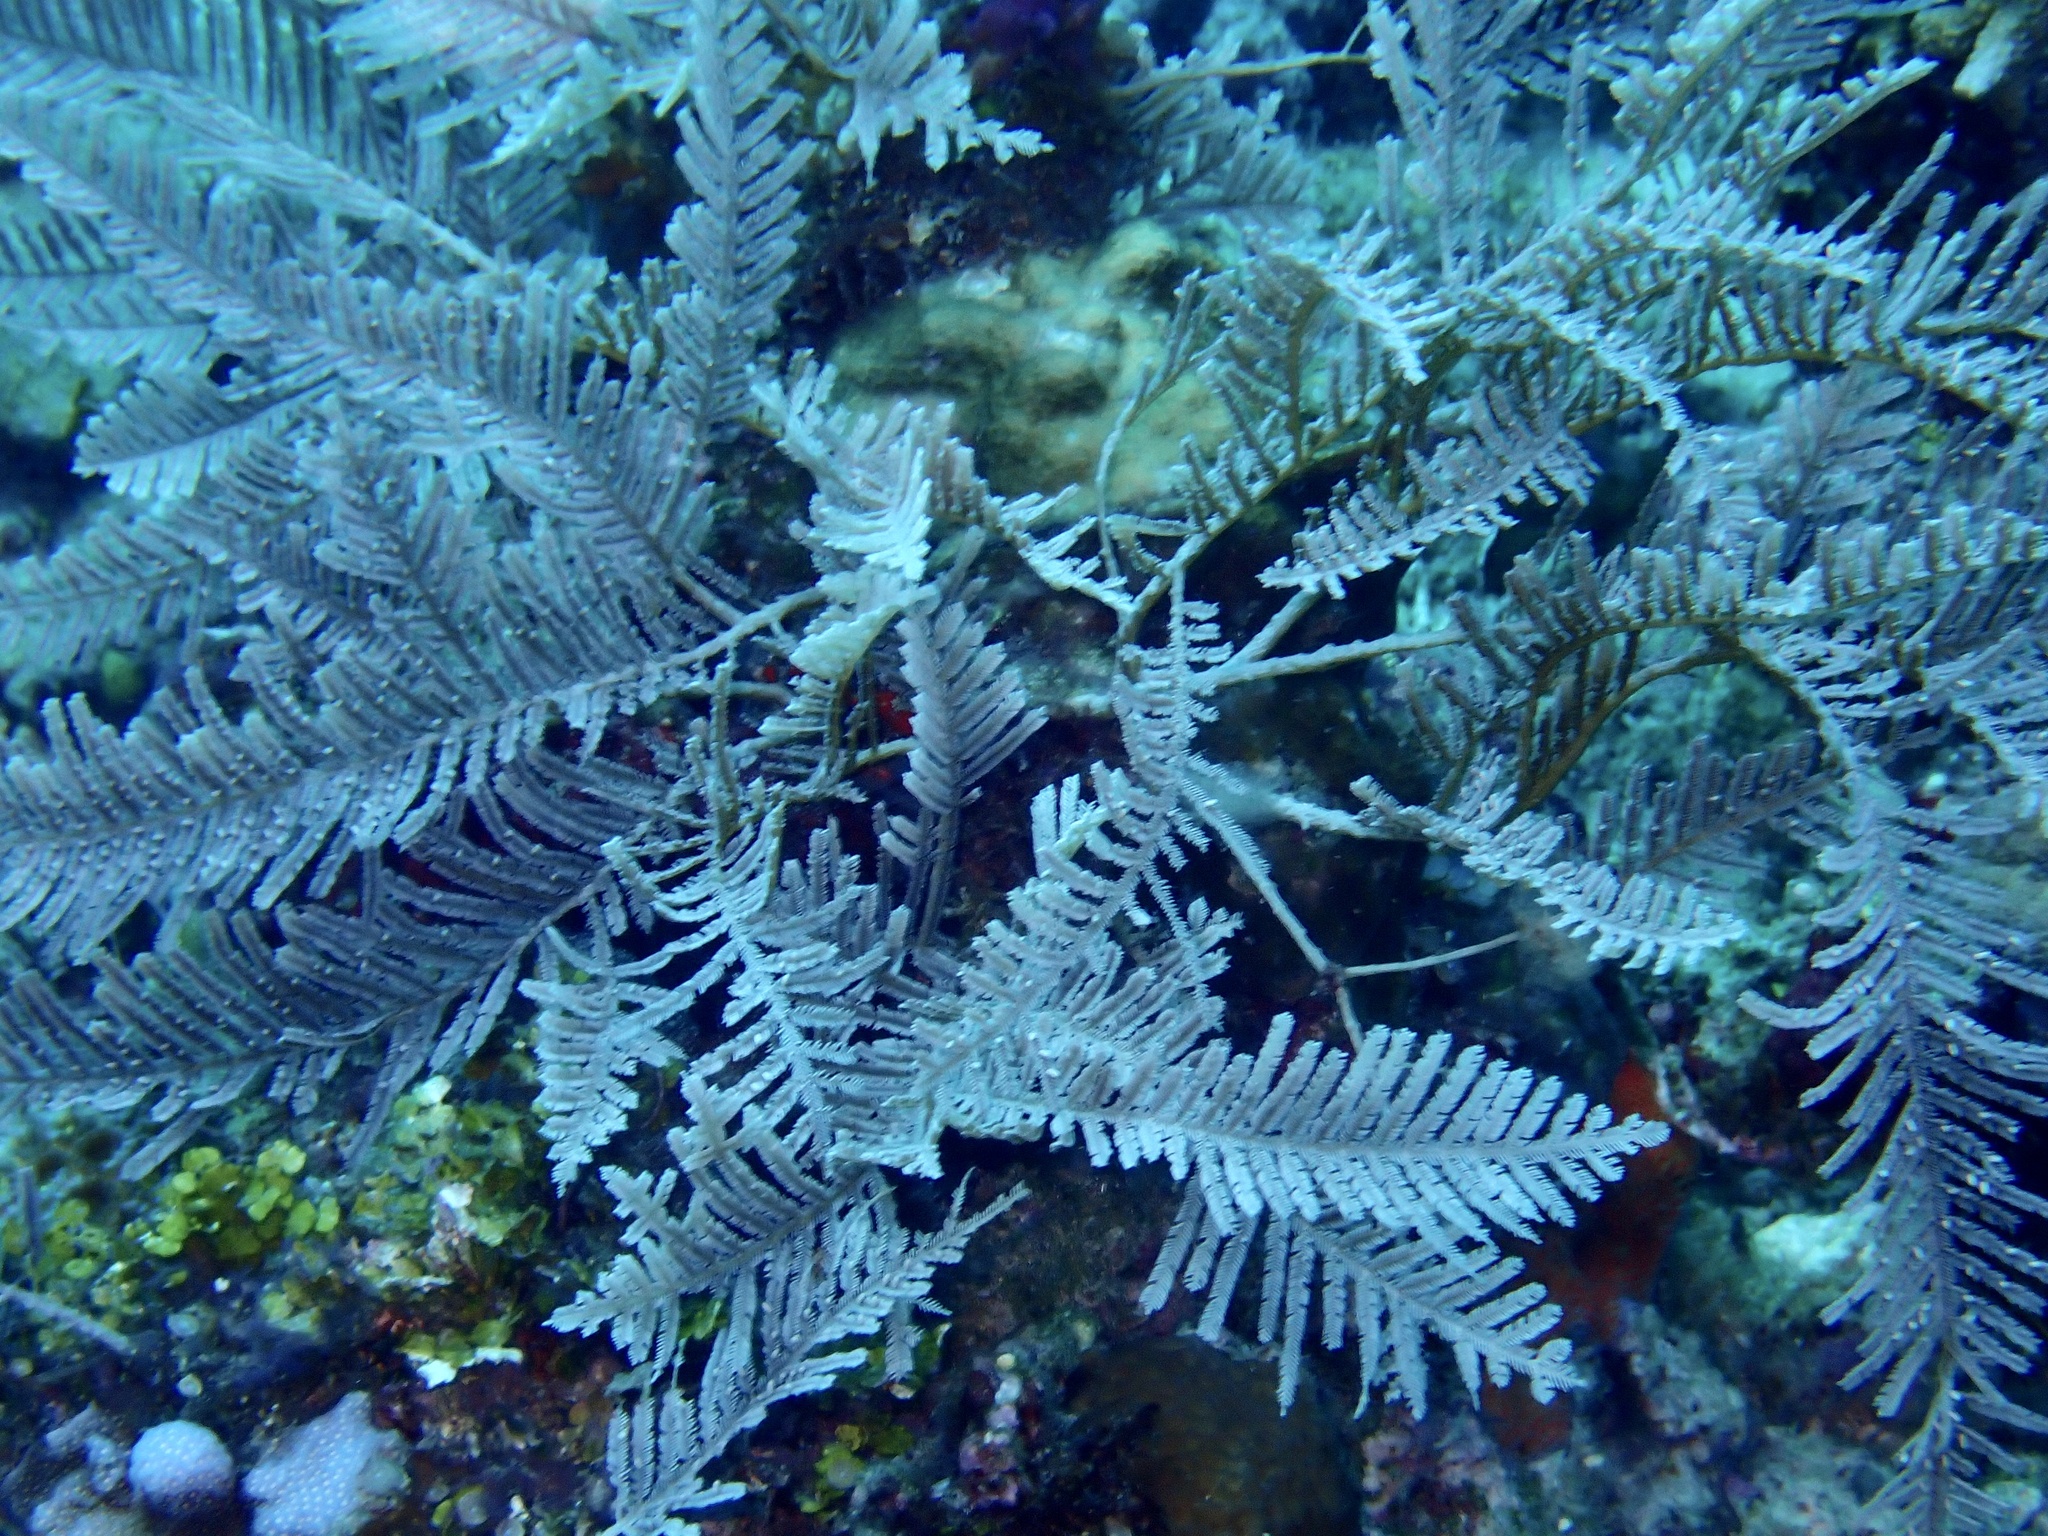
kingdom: Animalia
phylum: Cnidaria
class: Hydrozoa
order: Leptothecata
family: Aglaopheniidae
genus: Pachyrhynchia
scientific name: Pachyrhynchia cuppressina
